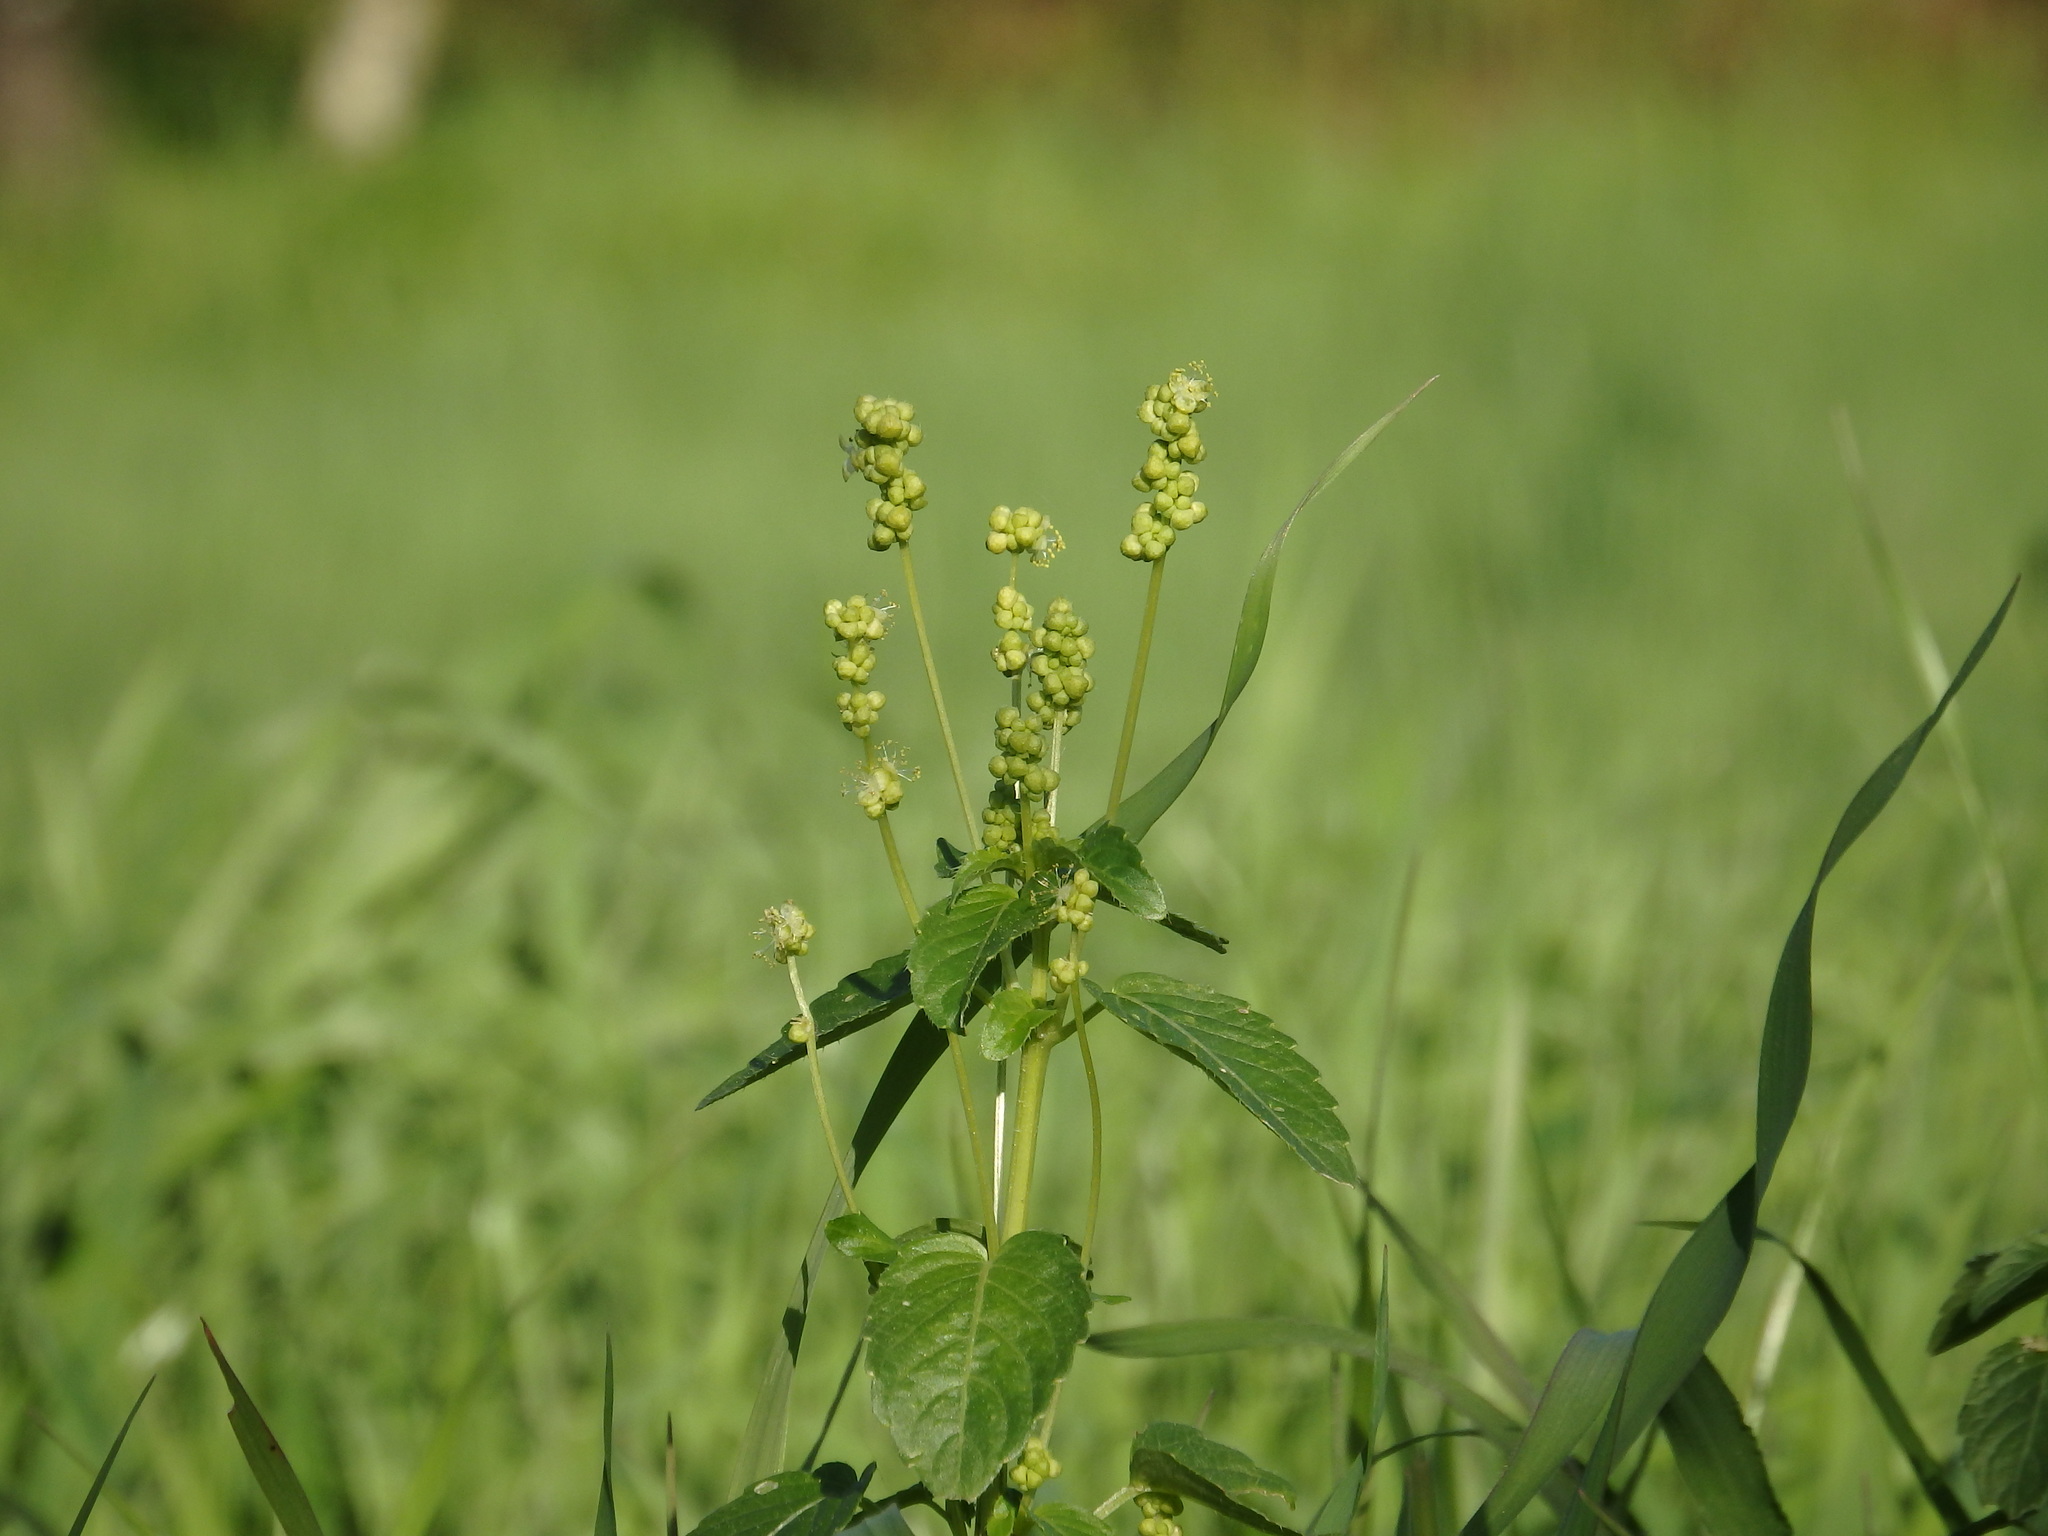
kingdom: Plantae
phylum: Tracheophyta
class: Magnoliopsida
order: Malpighiales
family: Euphorbiaceae
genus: Mercurialis
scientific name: Mercurialis annua
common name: Annual mercury
